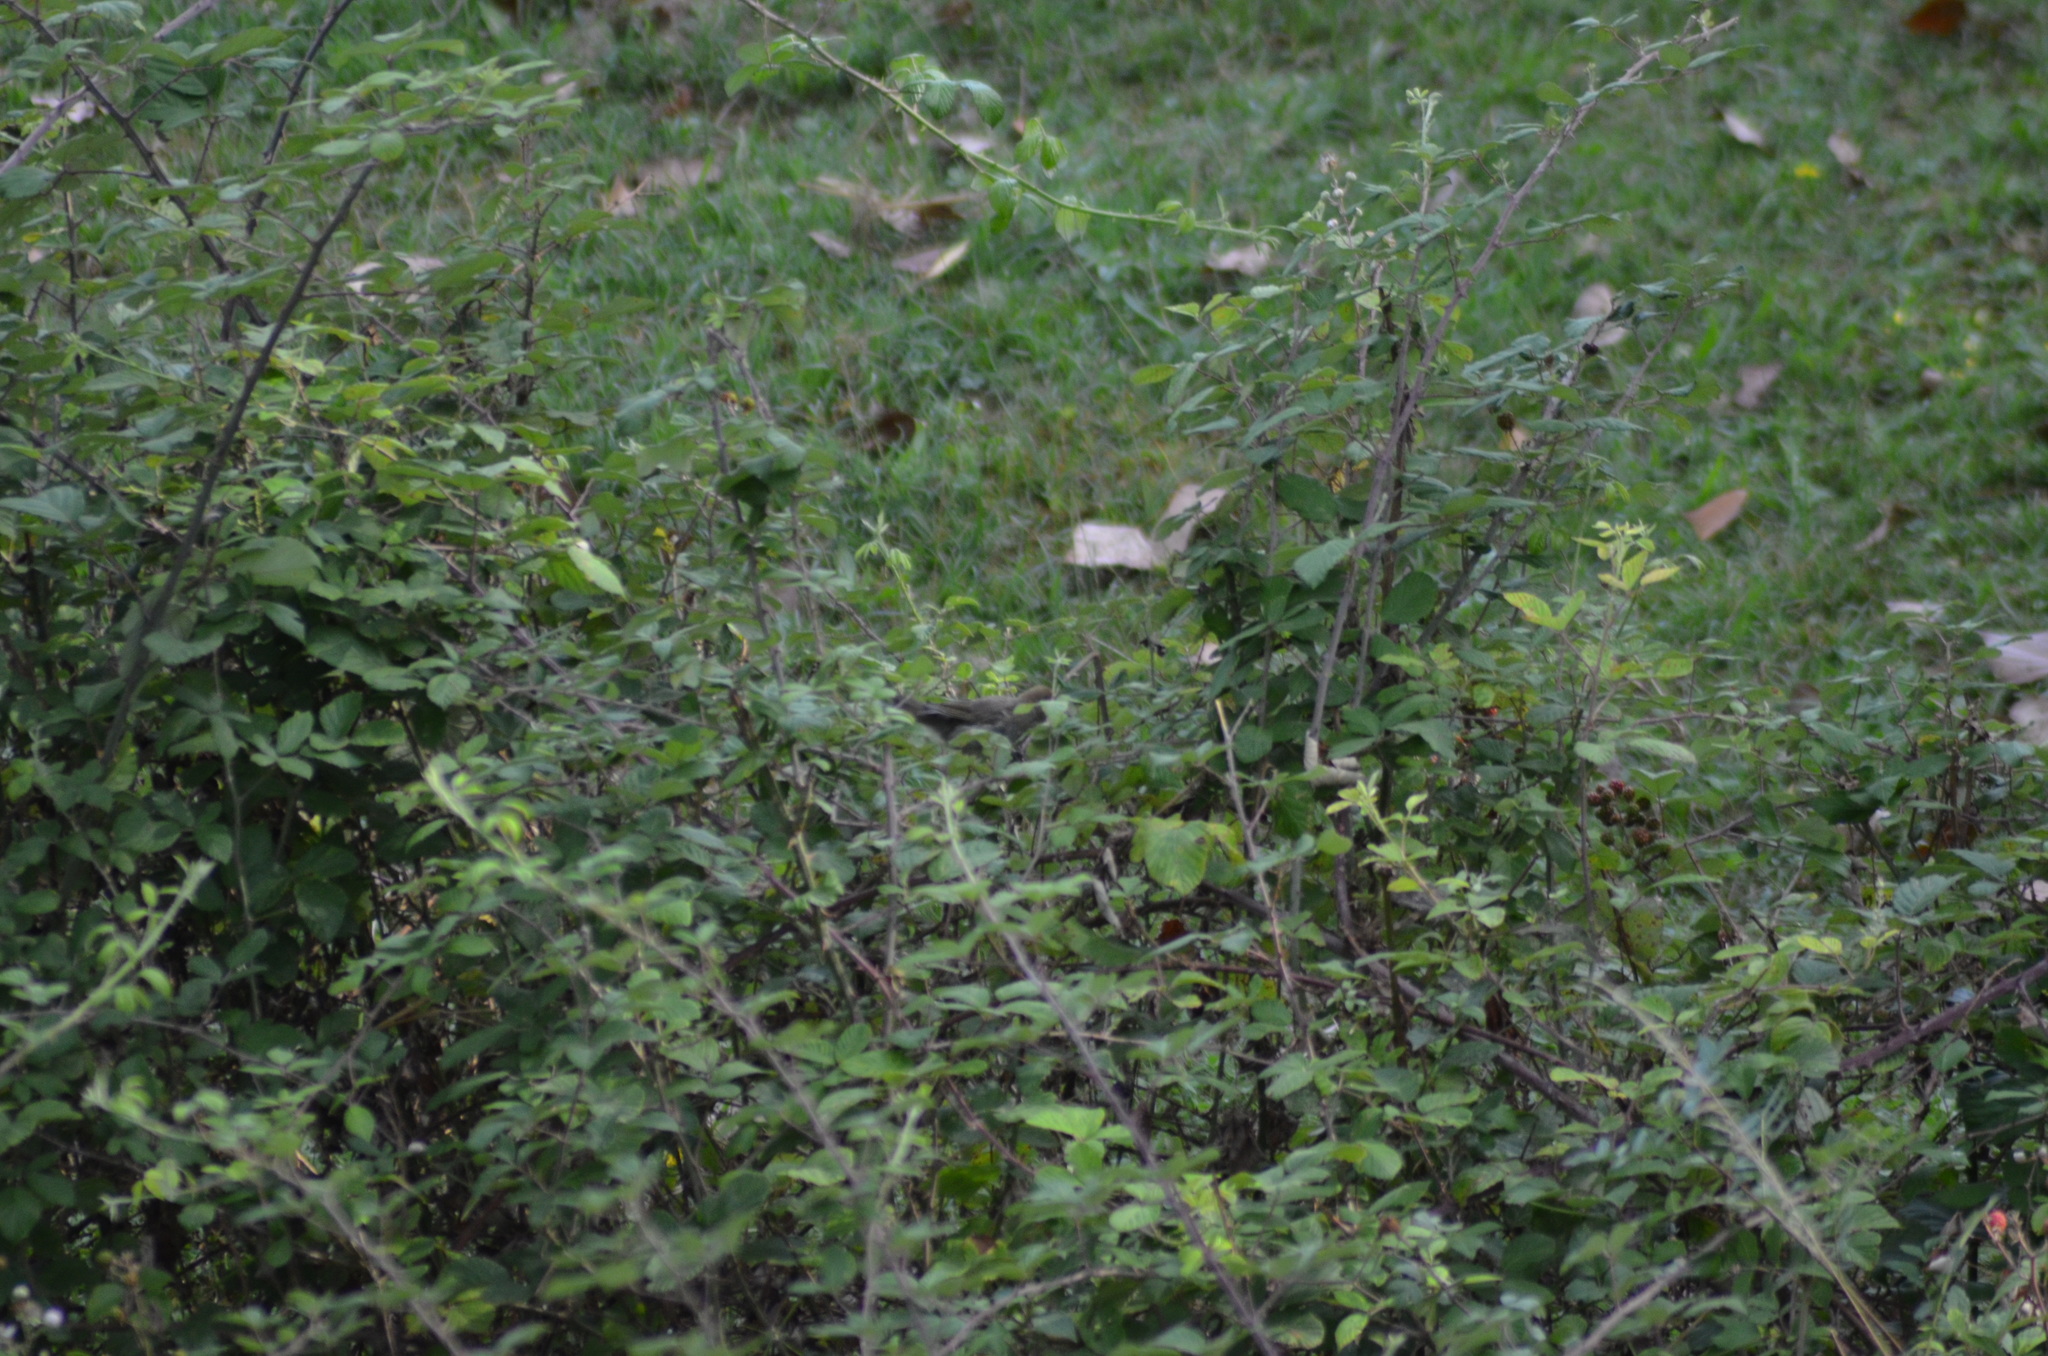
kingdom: Animalia
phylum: Chordata
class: Aves
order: Passeriformes
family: Sylviidae
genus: Sylvia
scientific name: Sylvia atricapilla
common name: Eurasian blackcap
